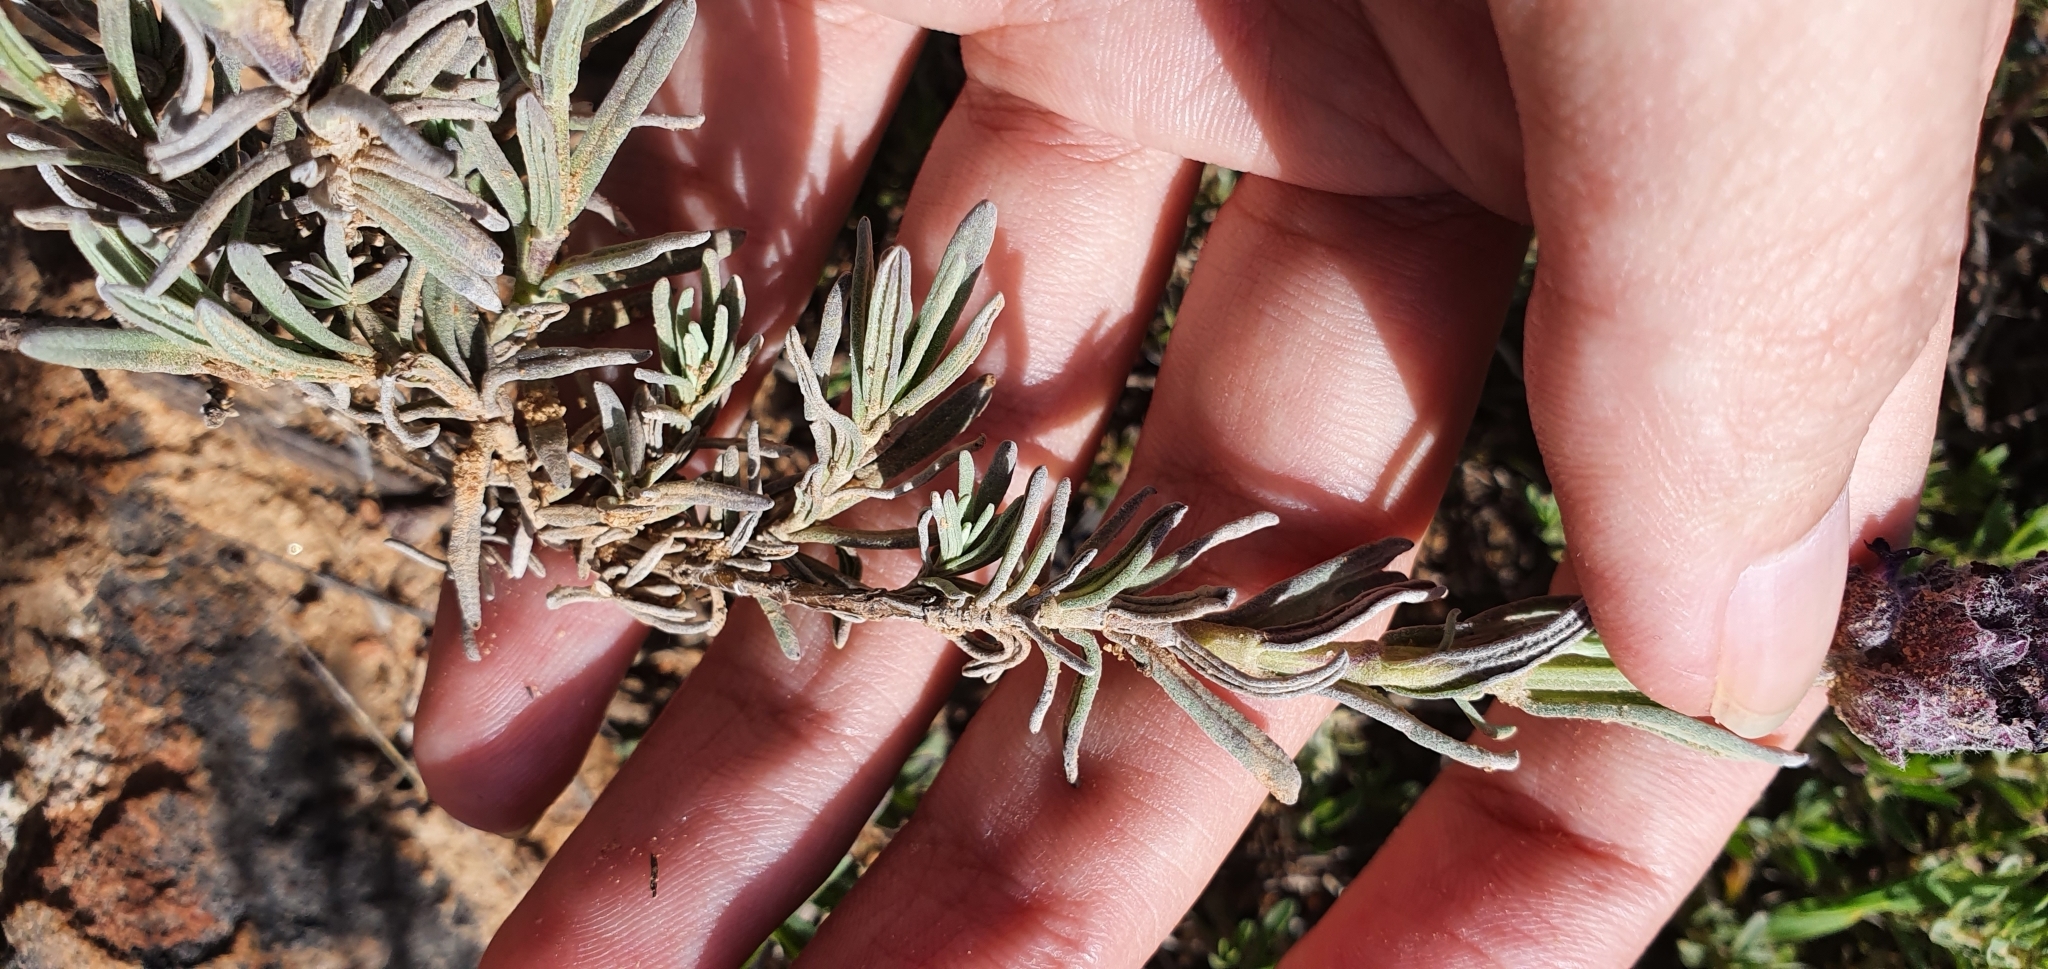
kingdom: Plantae
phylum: Tracheophyta
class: Magnoliopsida
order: Lamiales
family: Lamiaceae
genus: Lavandula
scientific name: Lavandula stoechas
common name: French lavender
